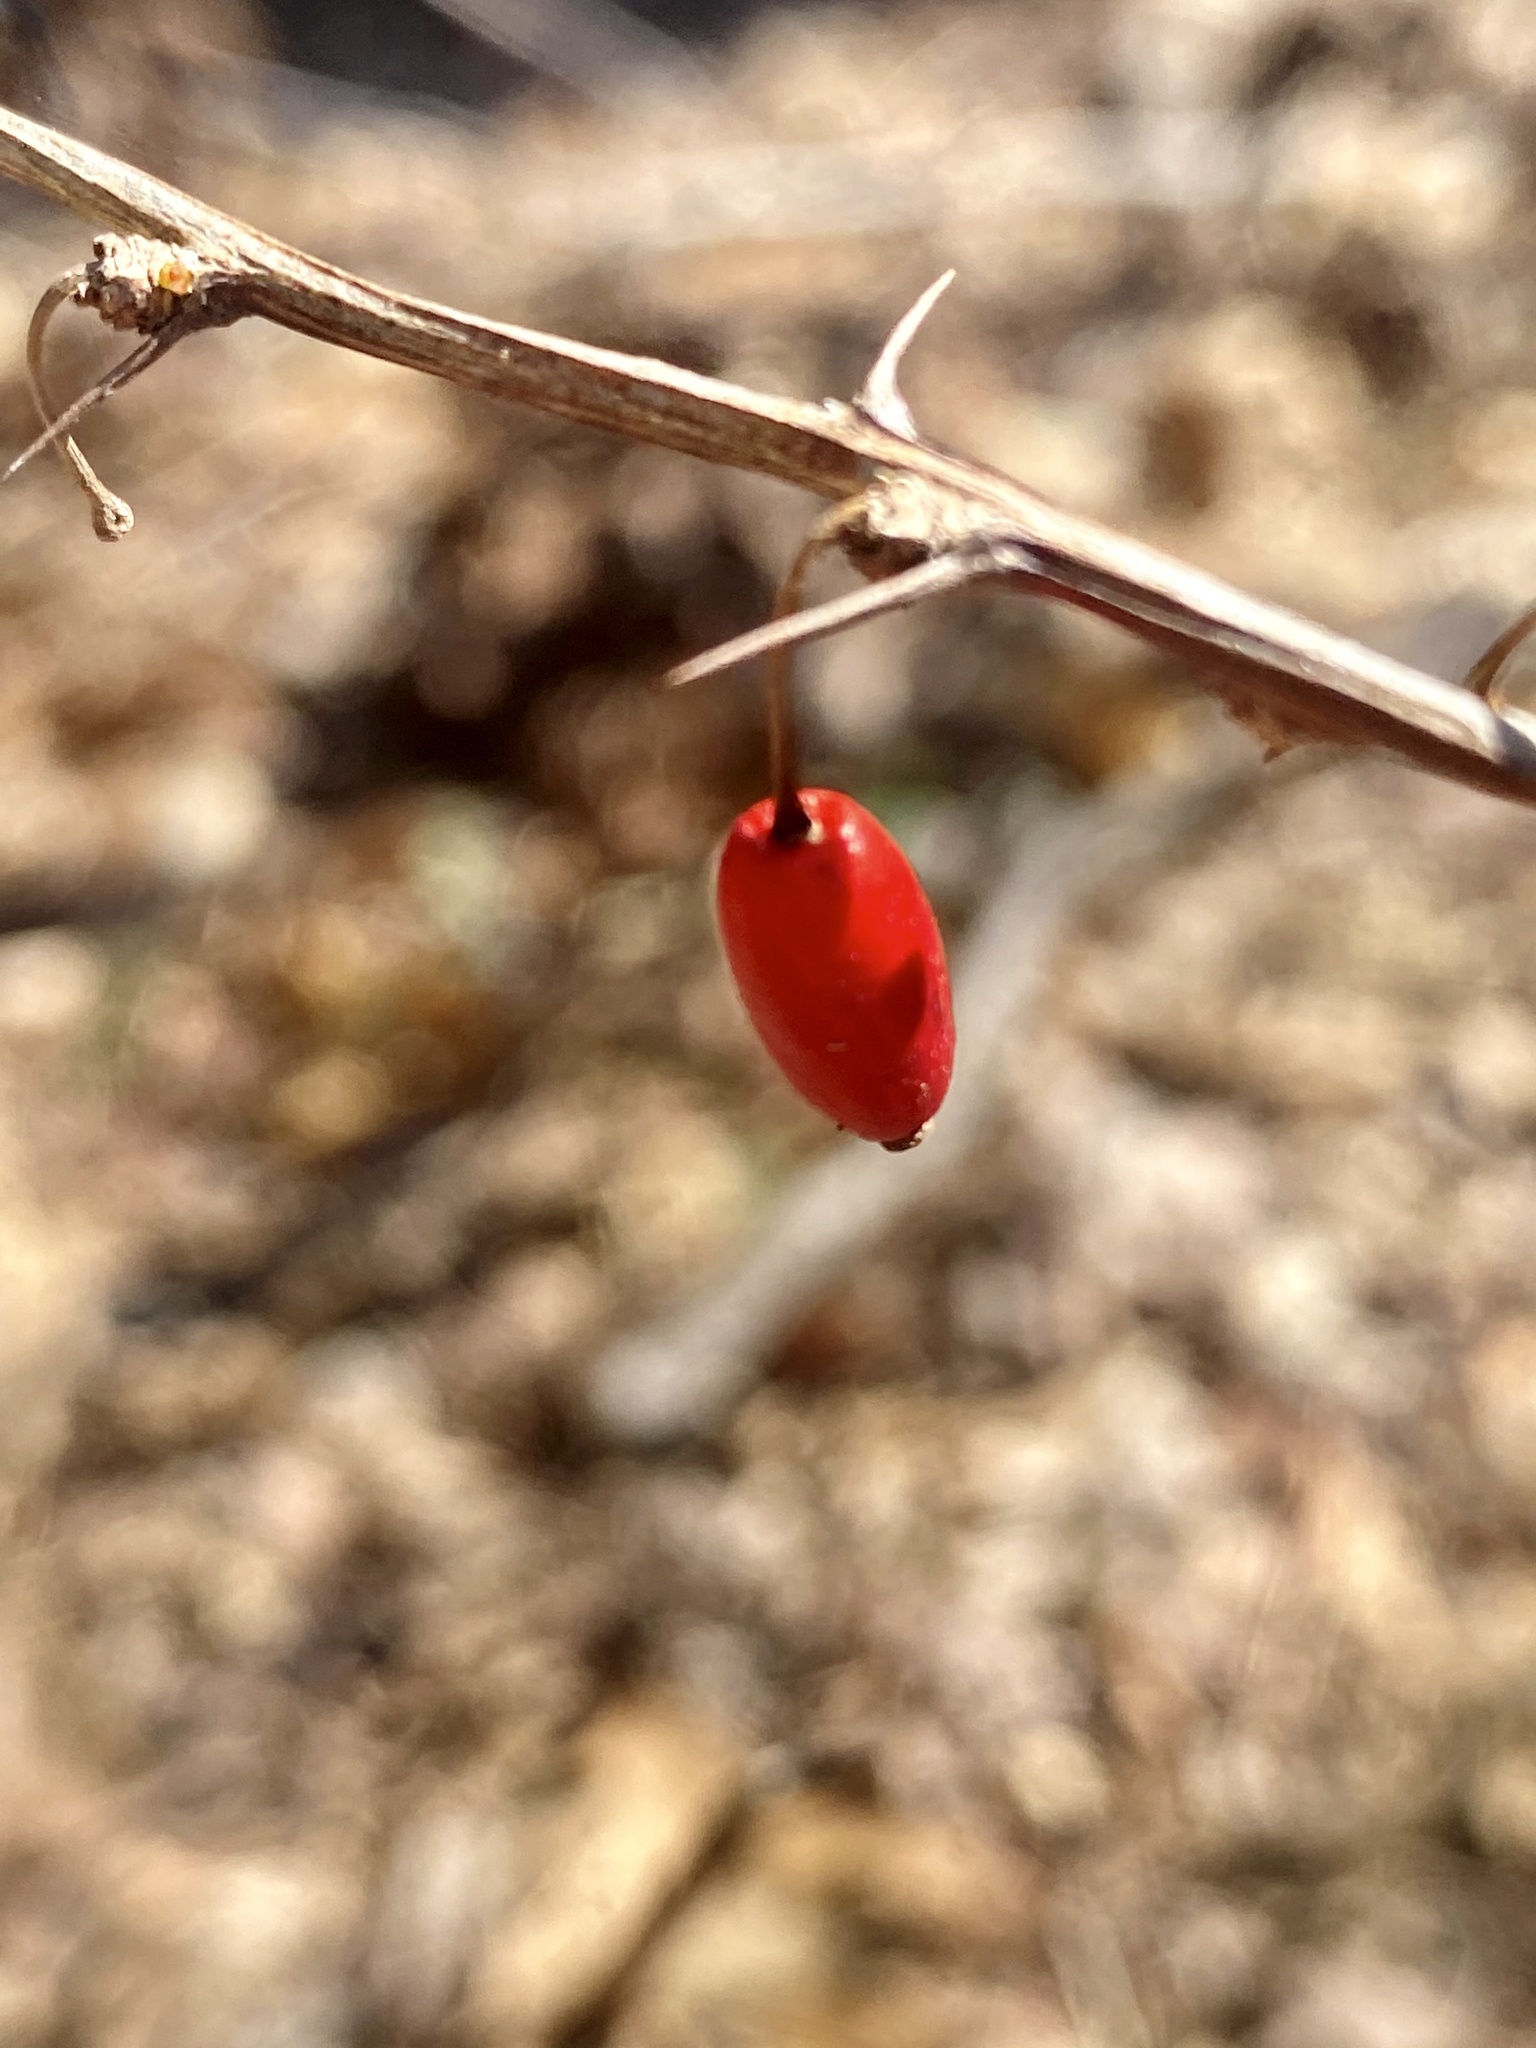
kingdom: Plantae
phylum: Tracheophyta
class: Magnoliopsida
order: Ranunculales
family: Berberidaceae
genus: Berberis
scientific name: Berberis thunbergii
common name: Japanese barberry
